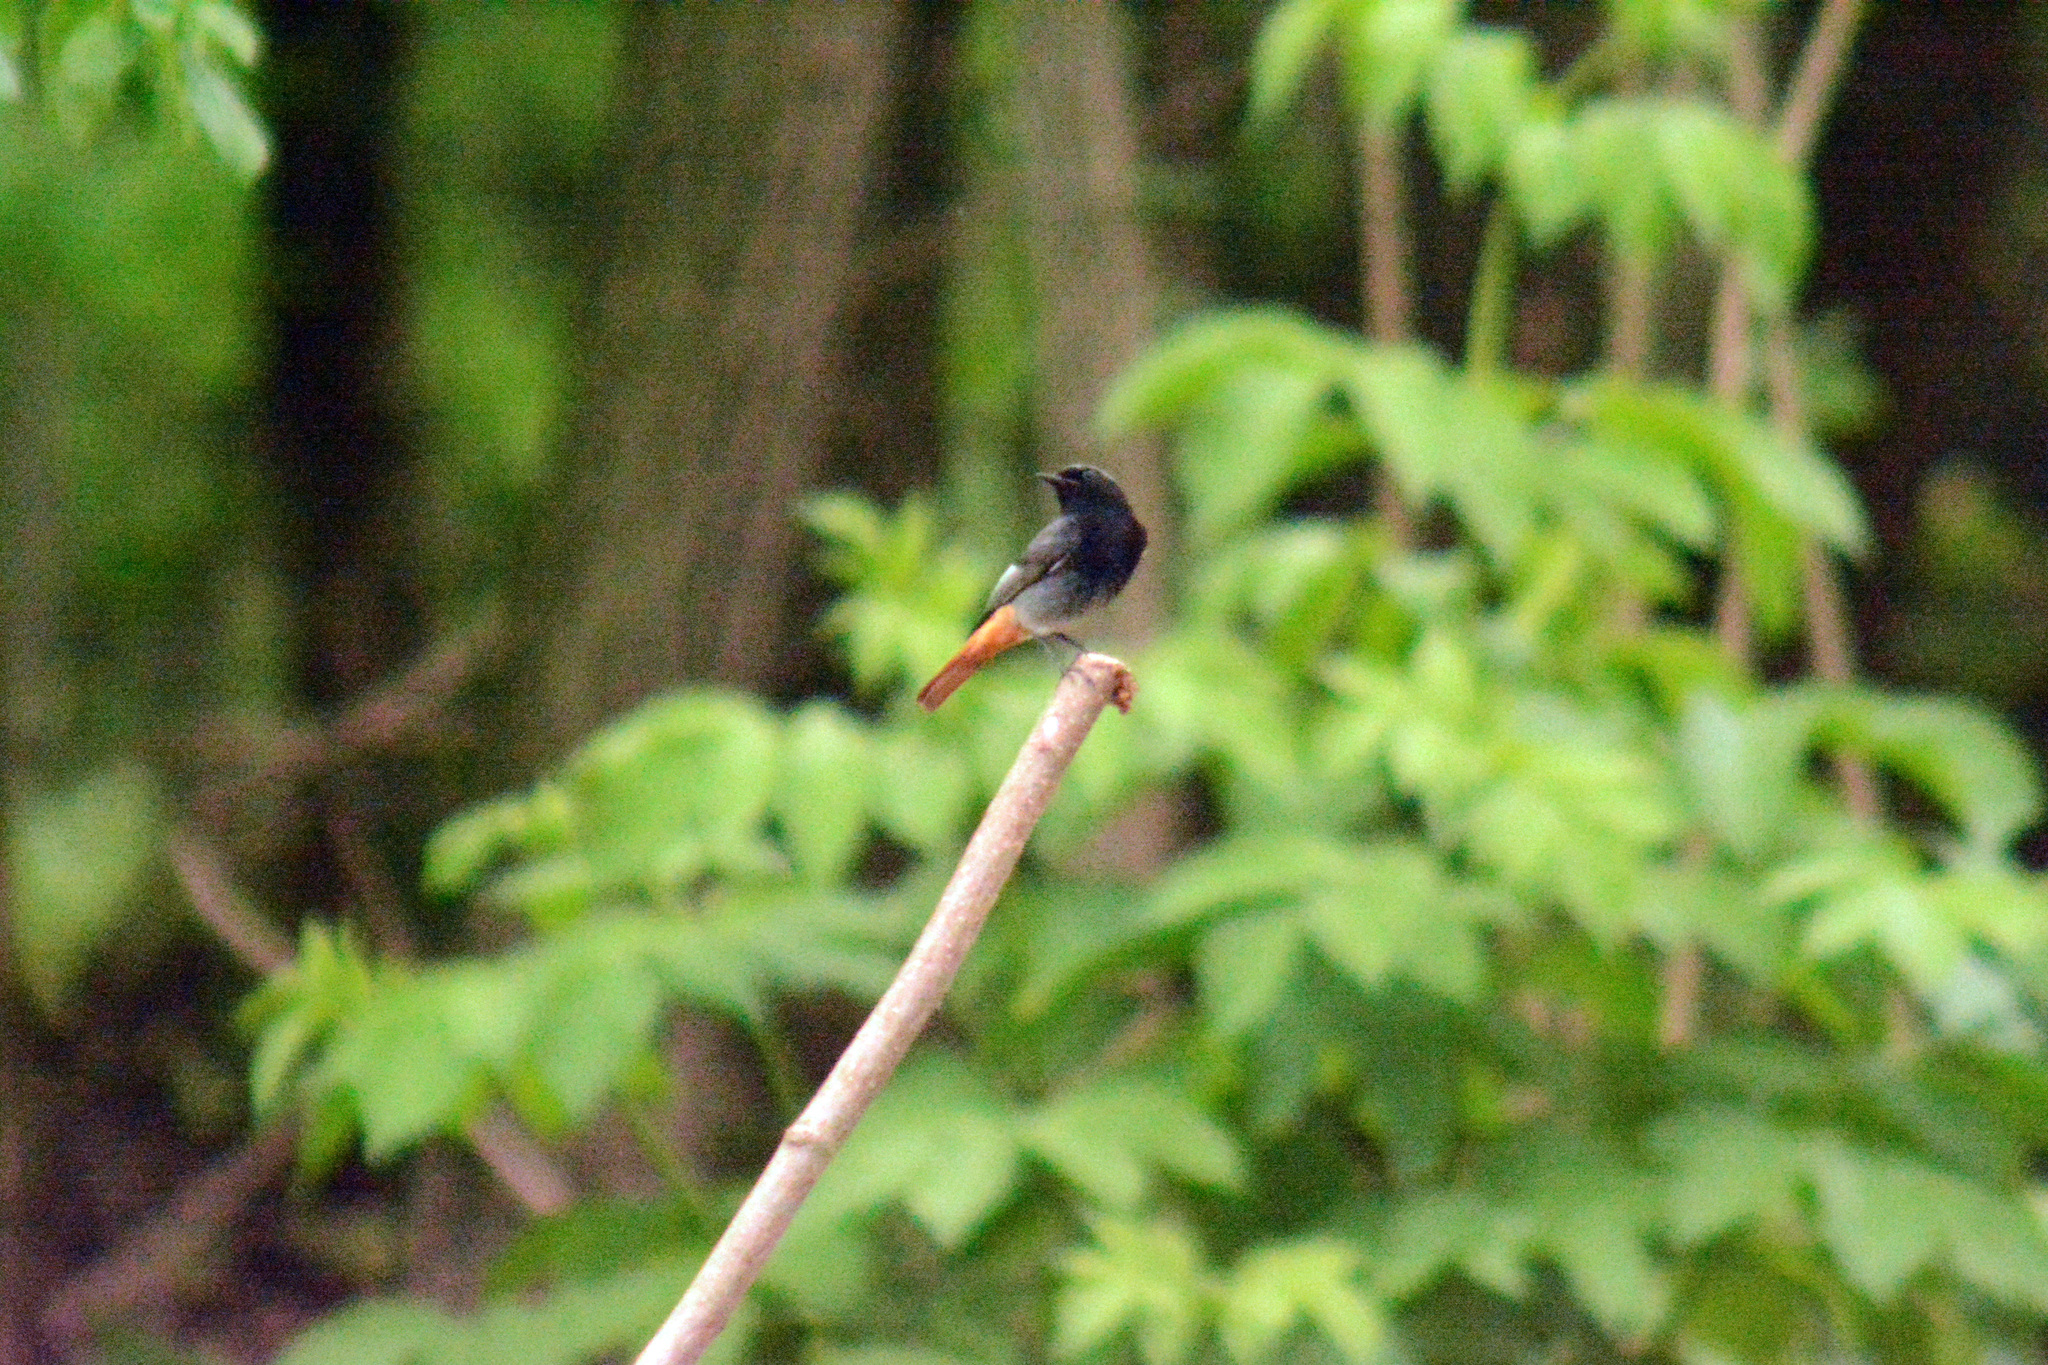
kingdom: Animalia
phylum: Chordata
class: Aves
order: Passeriformes
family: Muscicapidae
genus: Phoenicurus
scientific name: Phoenicurus ochruros
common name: Black redstart
